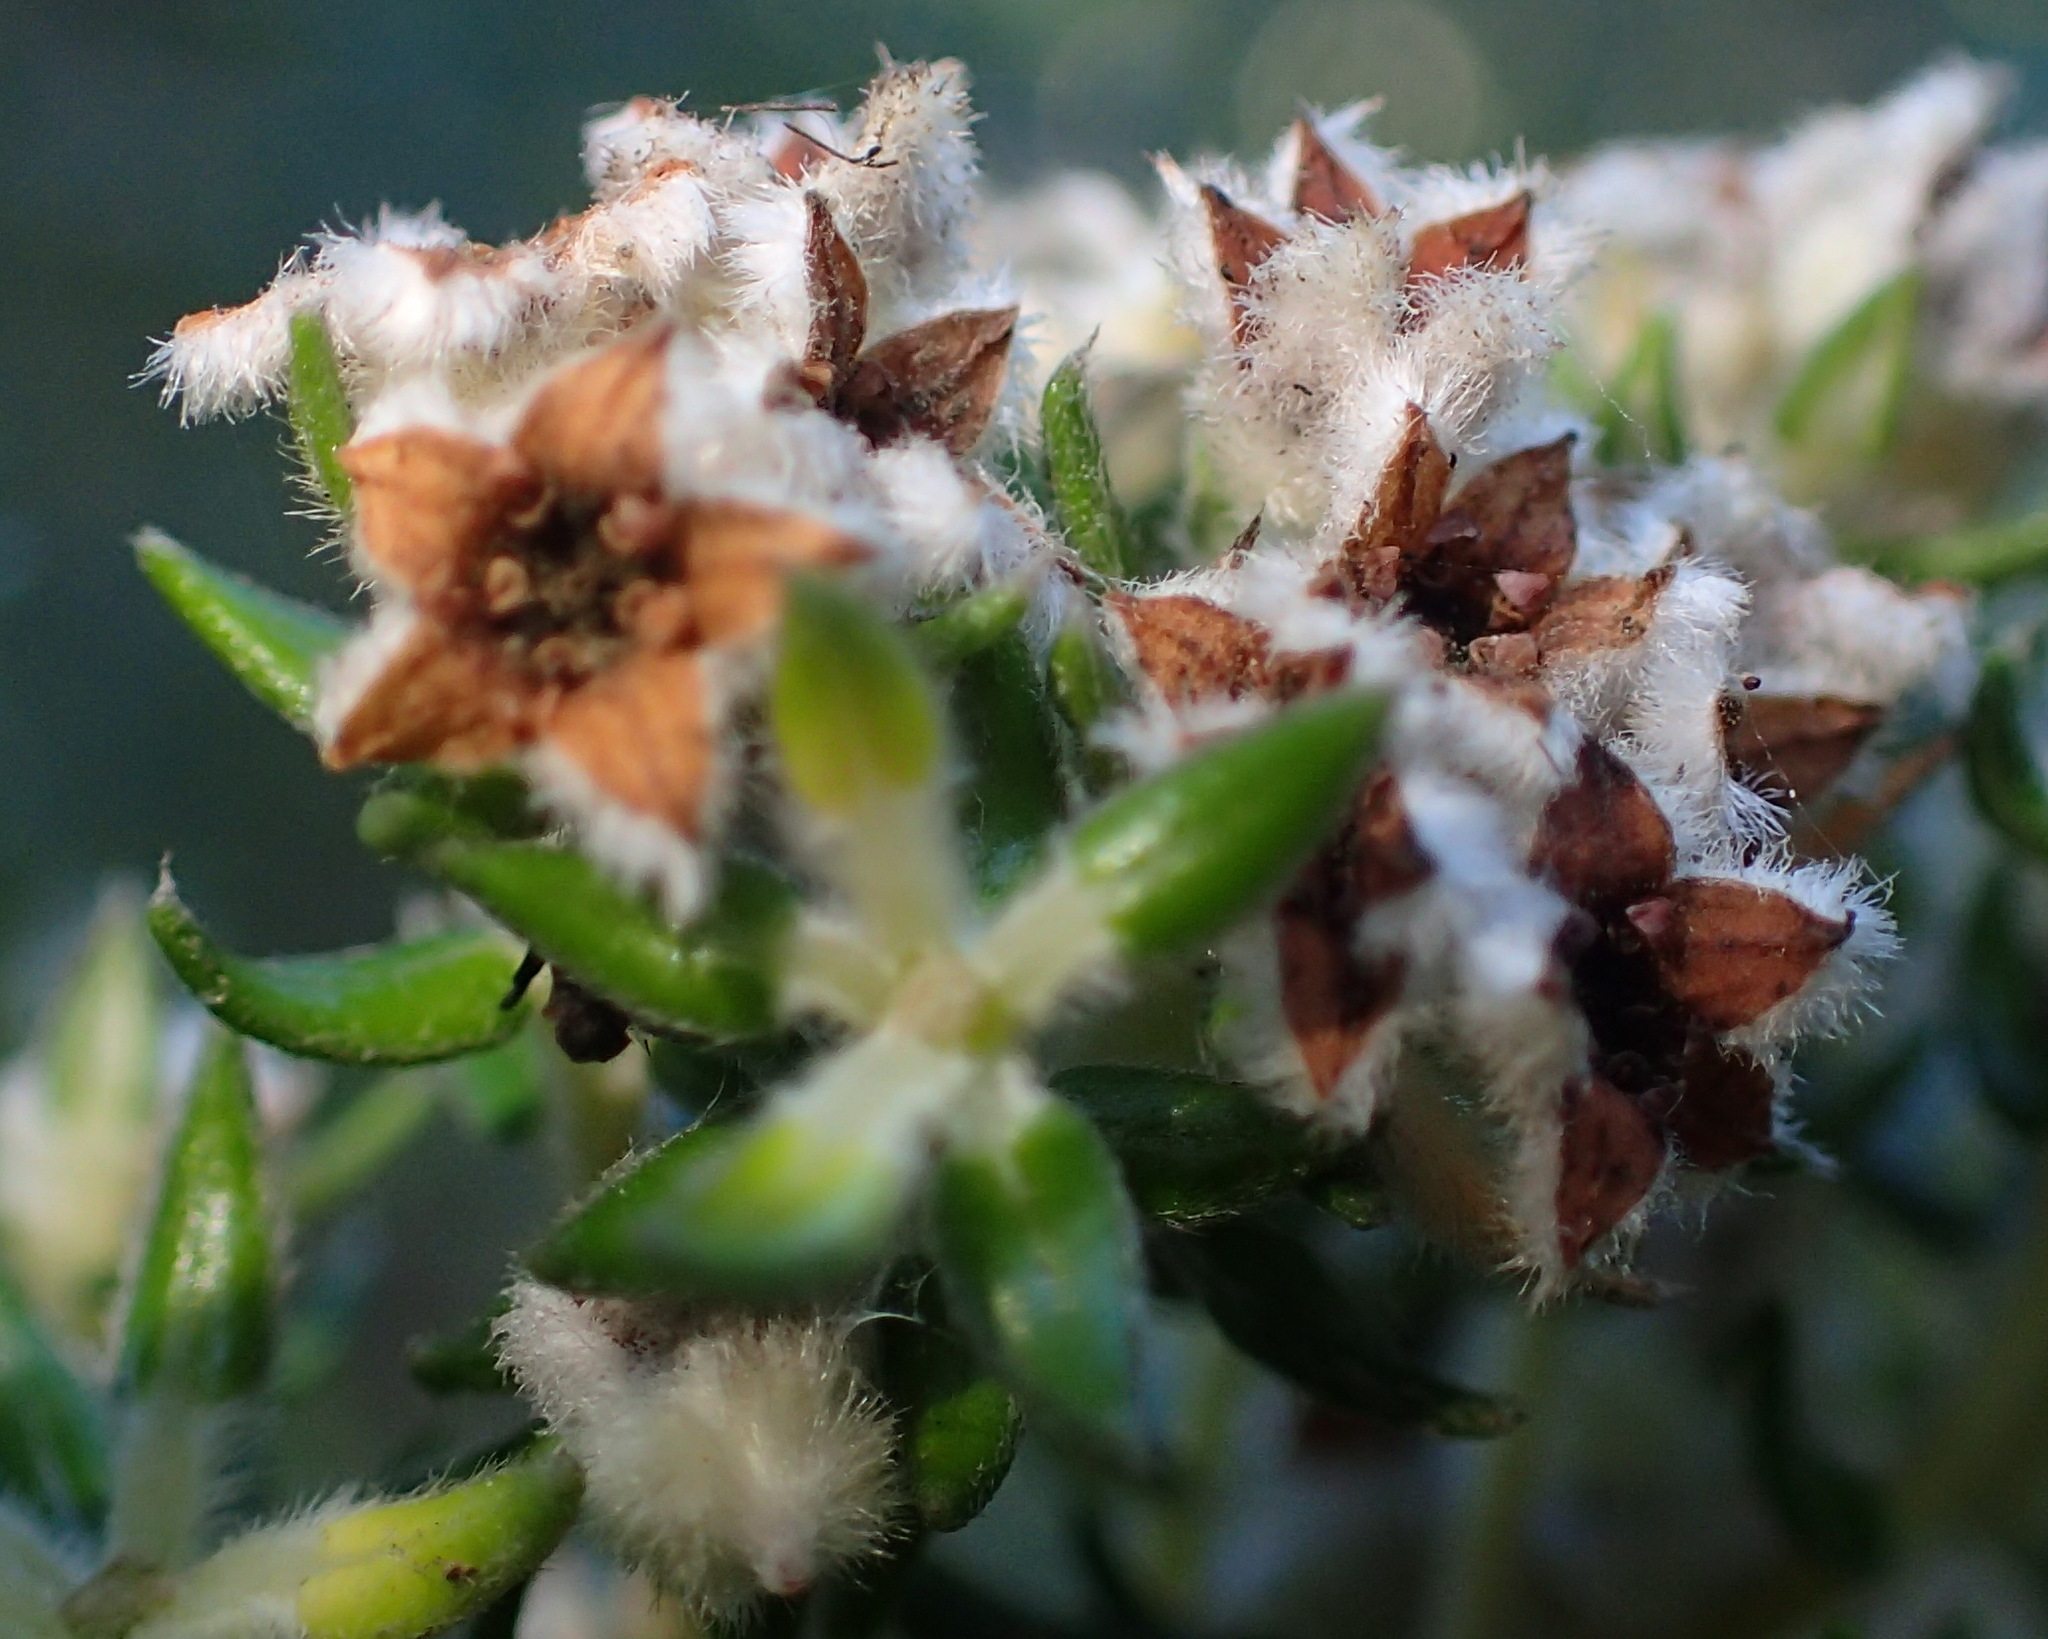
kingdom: Plantae
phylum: Tracheophyta
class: Magnoliopsida
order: Rosales
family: Rhamnaceae
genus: Phylica
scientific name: Phylica purpurea
